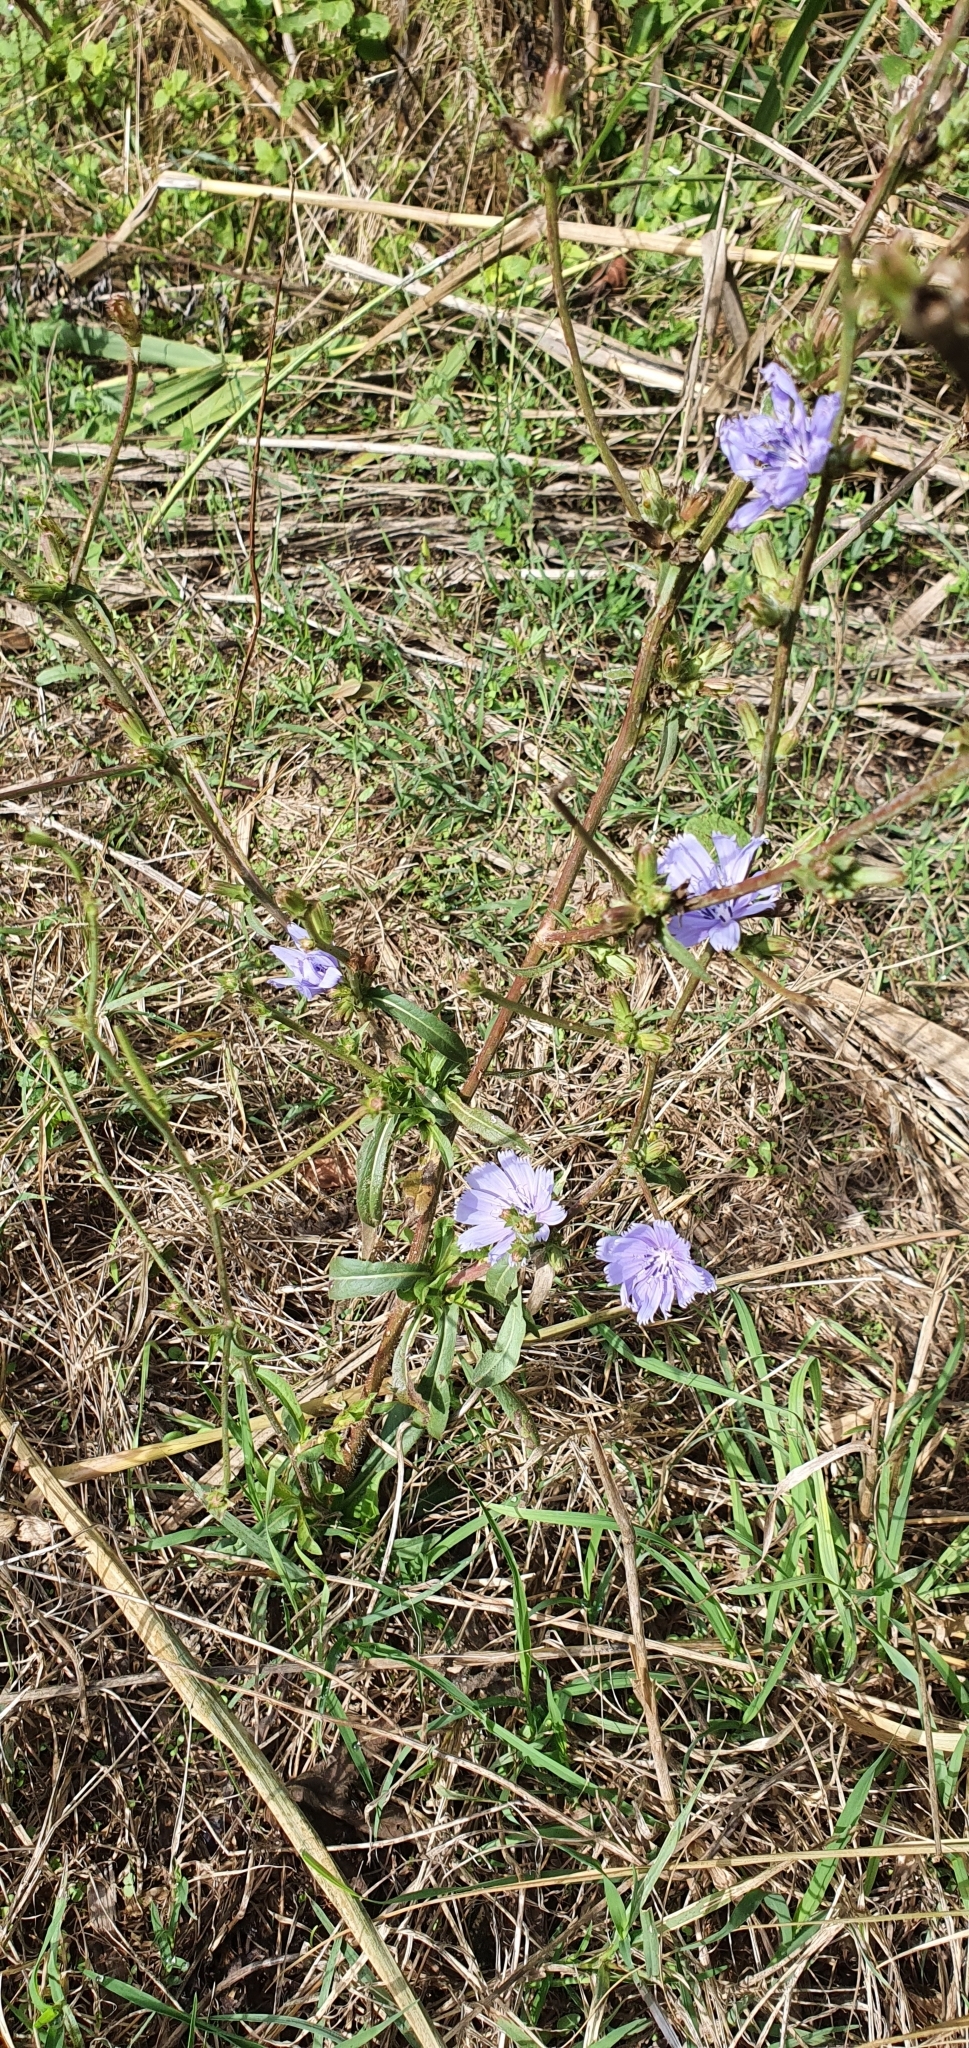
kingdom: Plantae
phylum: Tracheophyta
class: Magnoliopsida
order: Asterales
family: Asteraceae
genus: Cichorium
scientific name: Cichorium intybus
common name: Chicory
